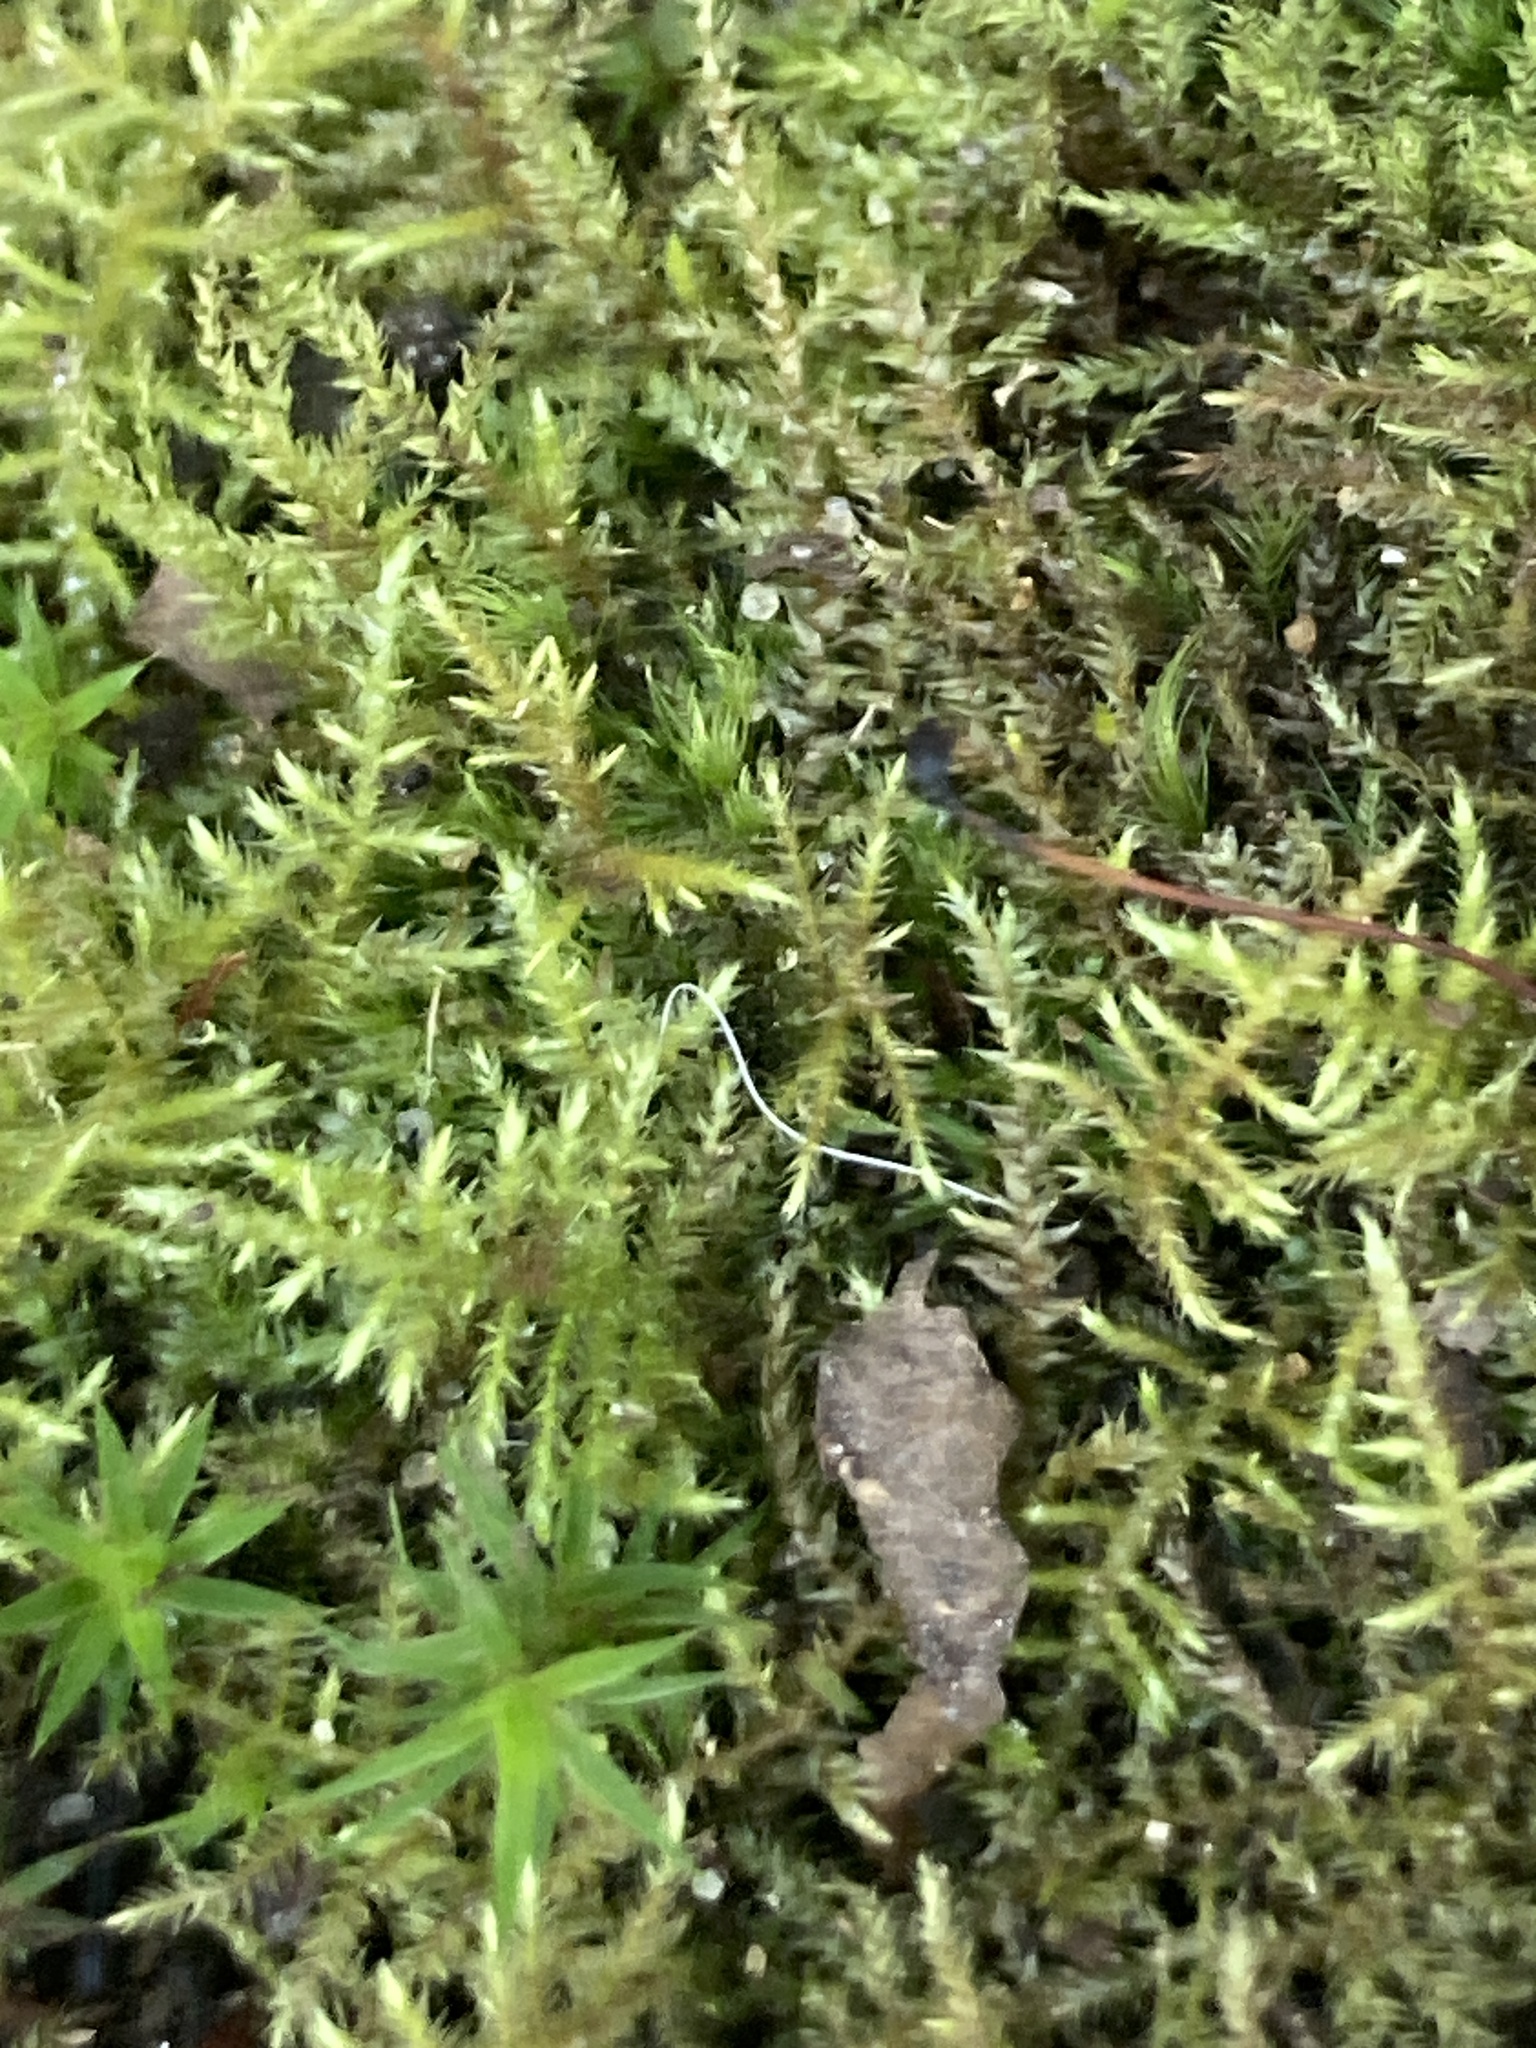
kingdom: Plantae
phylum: Bryophyta
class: Bryopsida
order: Hypnales
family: Brachytheciaceae
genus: Kindbergia
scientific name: Kindbergia praelonga
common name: Slender beaked moss
